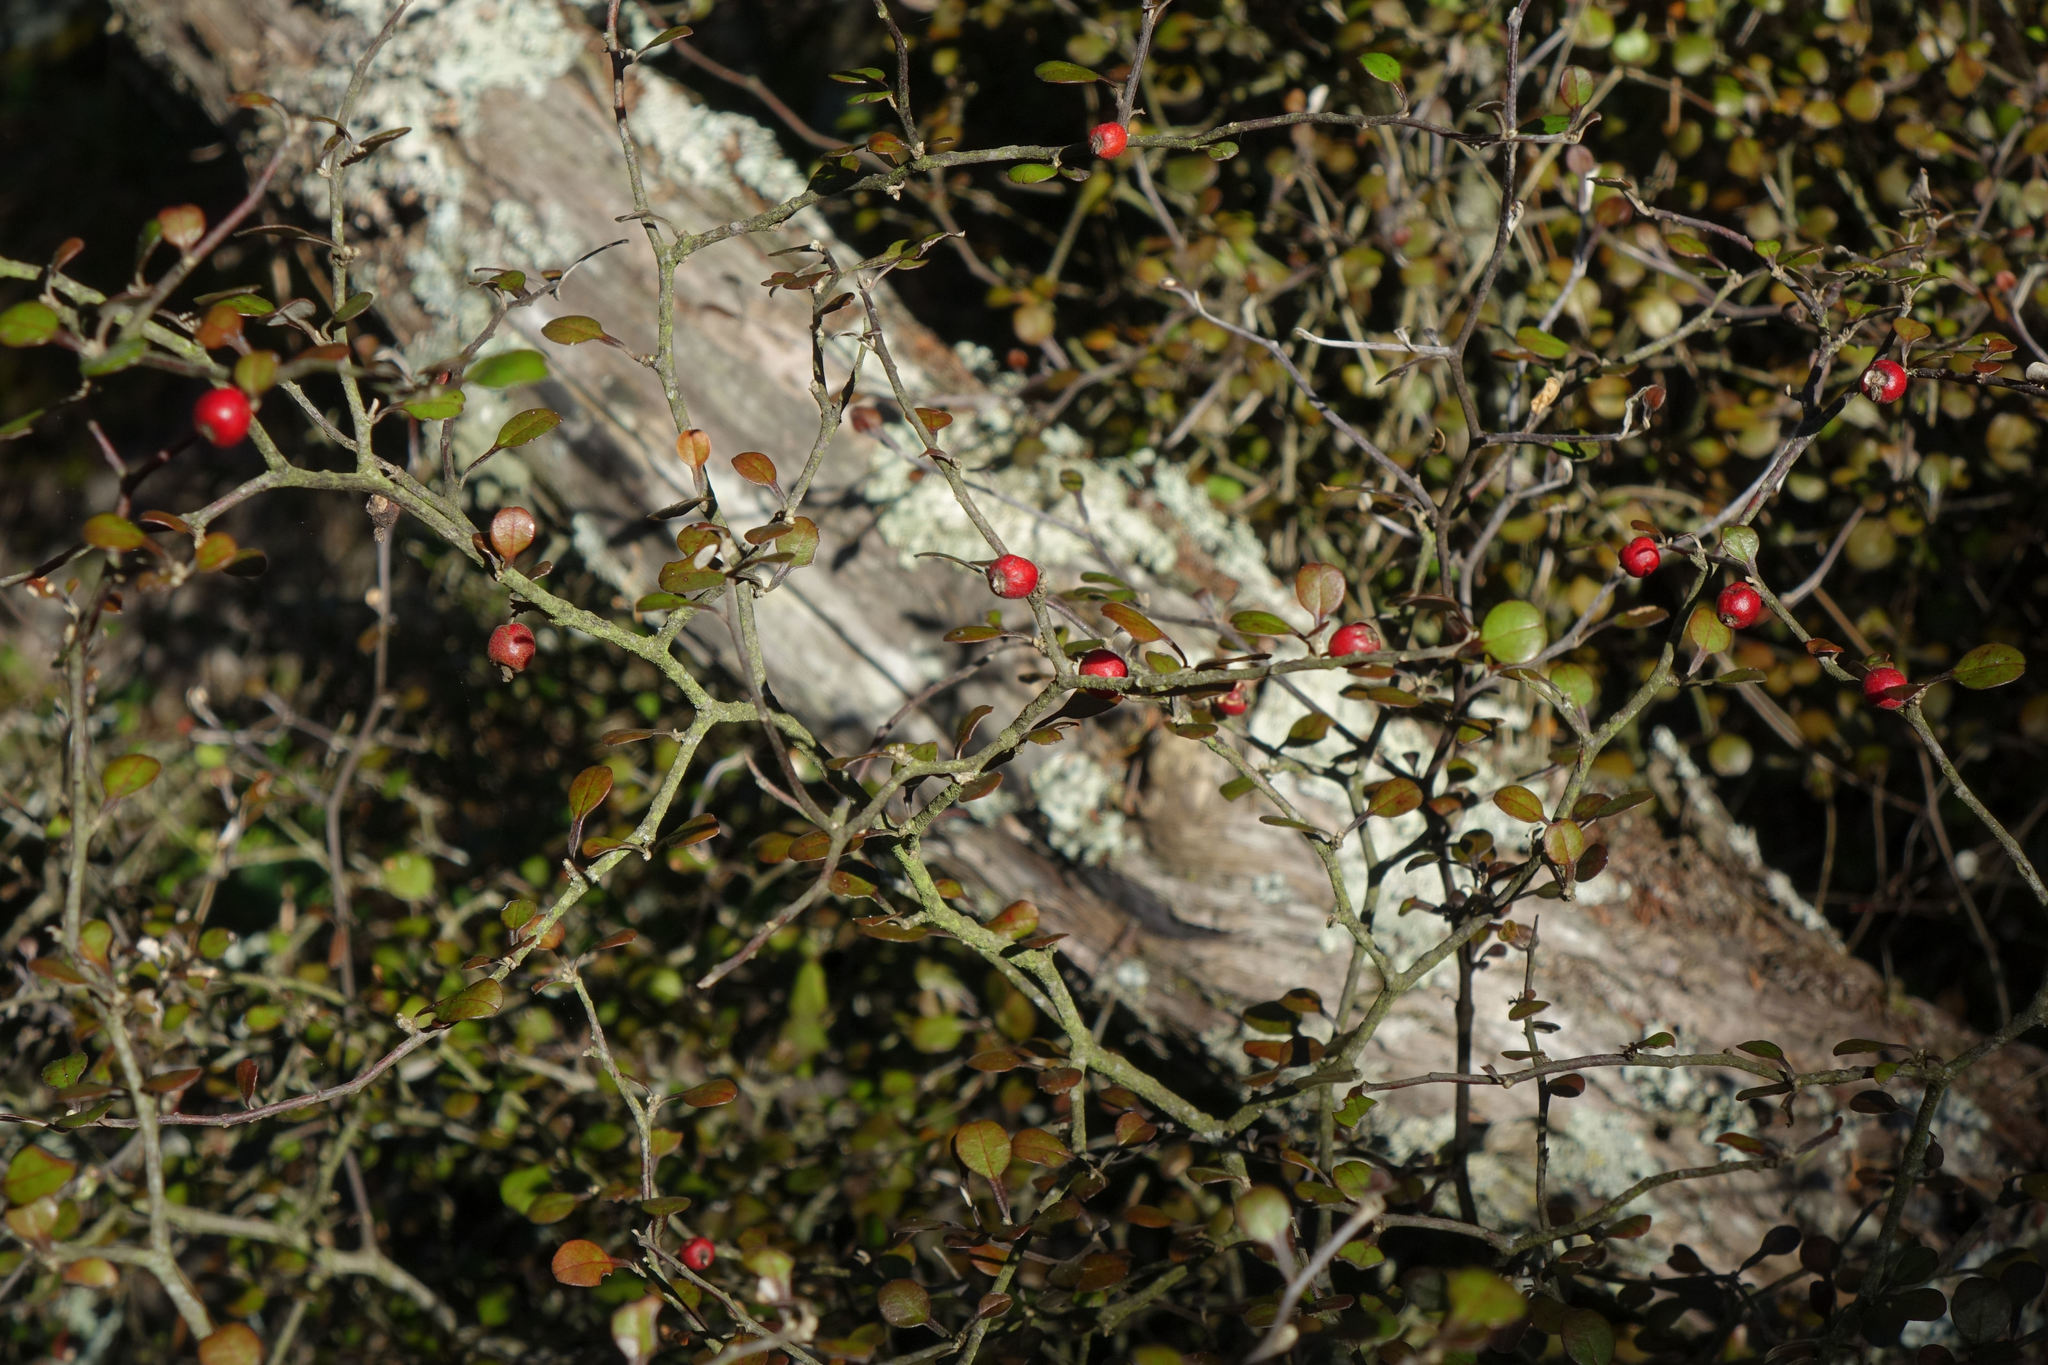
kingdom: Plantae
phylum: Tracheophyta
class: Magnoliopsida
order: Asterales
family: Argophyllaceae
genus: Corokia
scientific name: Corokia cotoneaster
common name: Wire nettingbush
